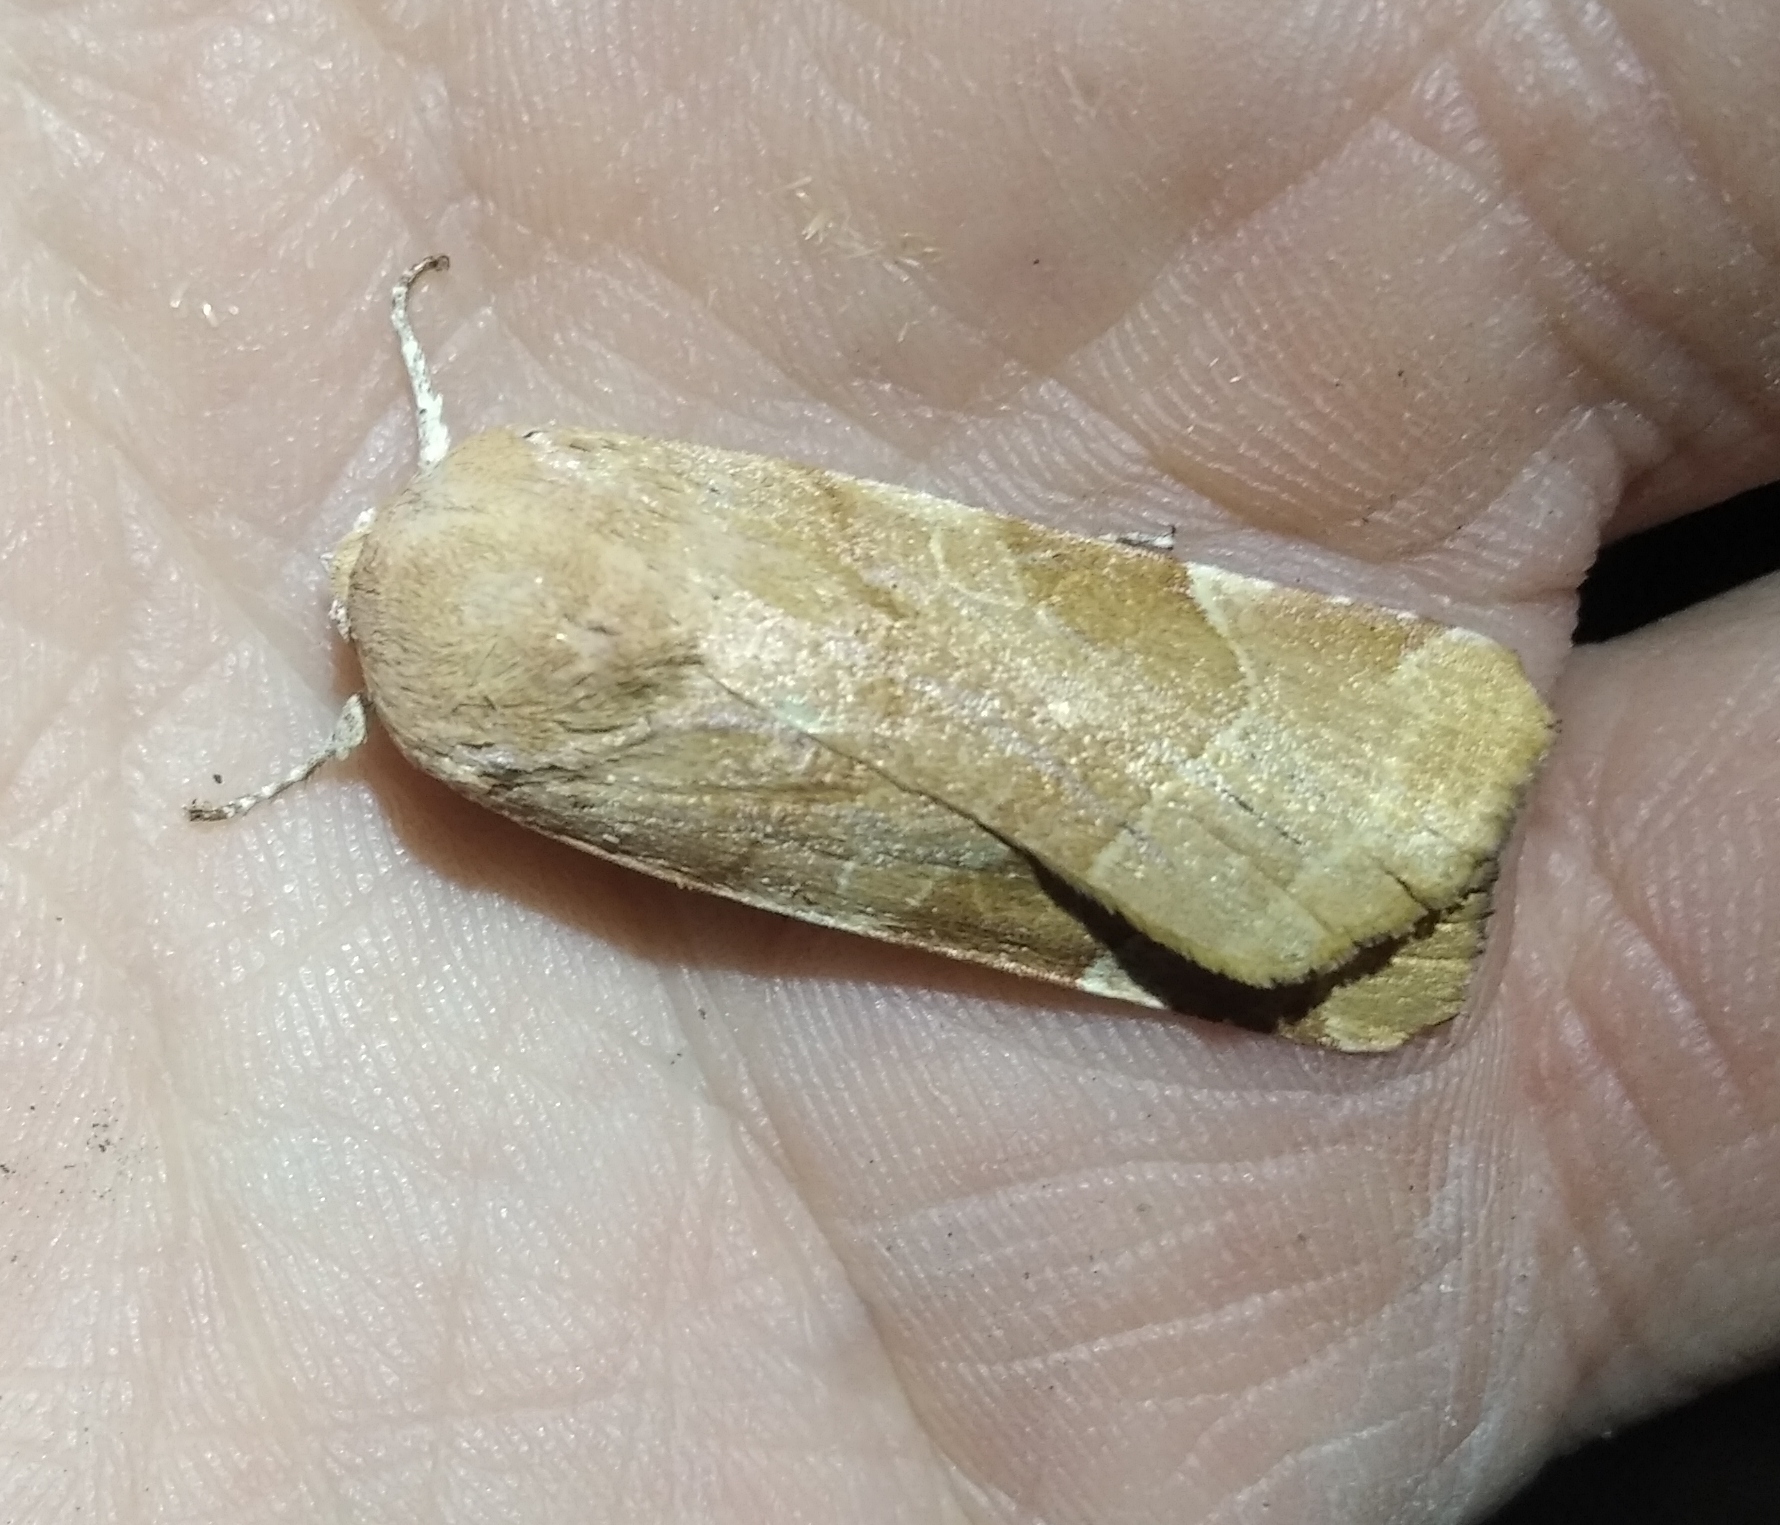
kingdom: Animalia
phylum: Arthropoda
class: Insecta
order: Lepidoptera
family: Noctuidae
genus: Noctua
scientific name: Noctua fimbriata
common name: Broad-bordered yellow underwing
